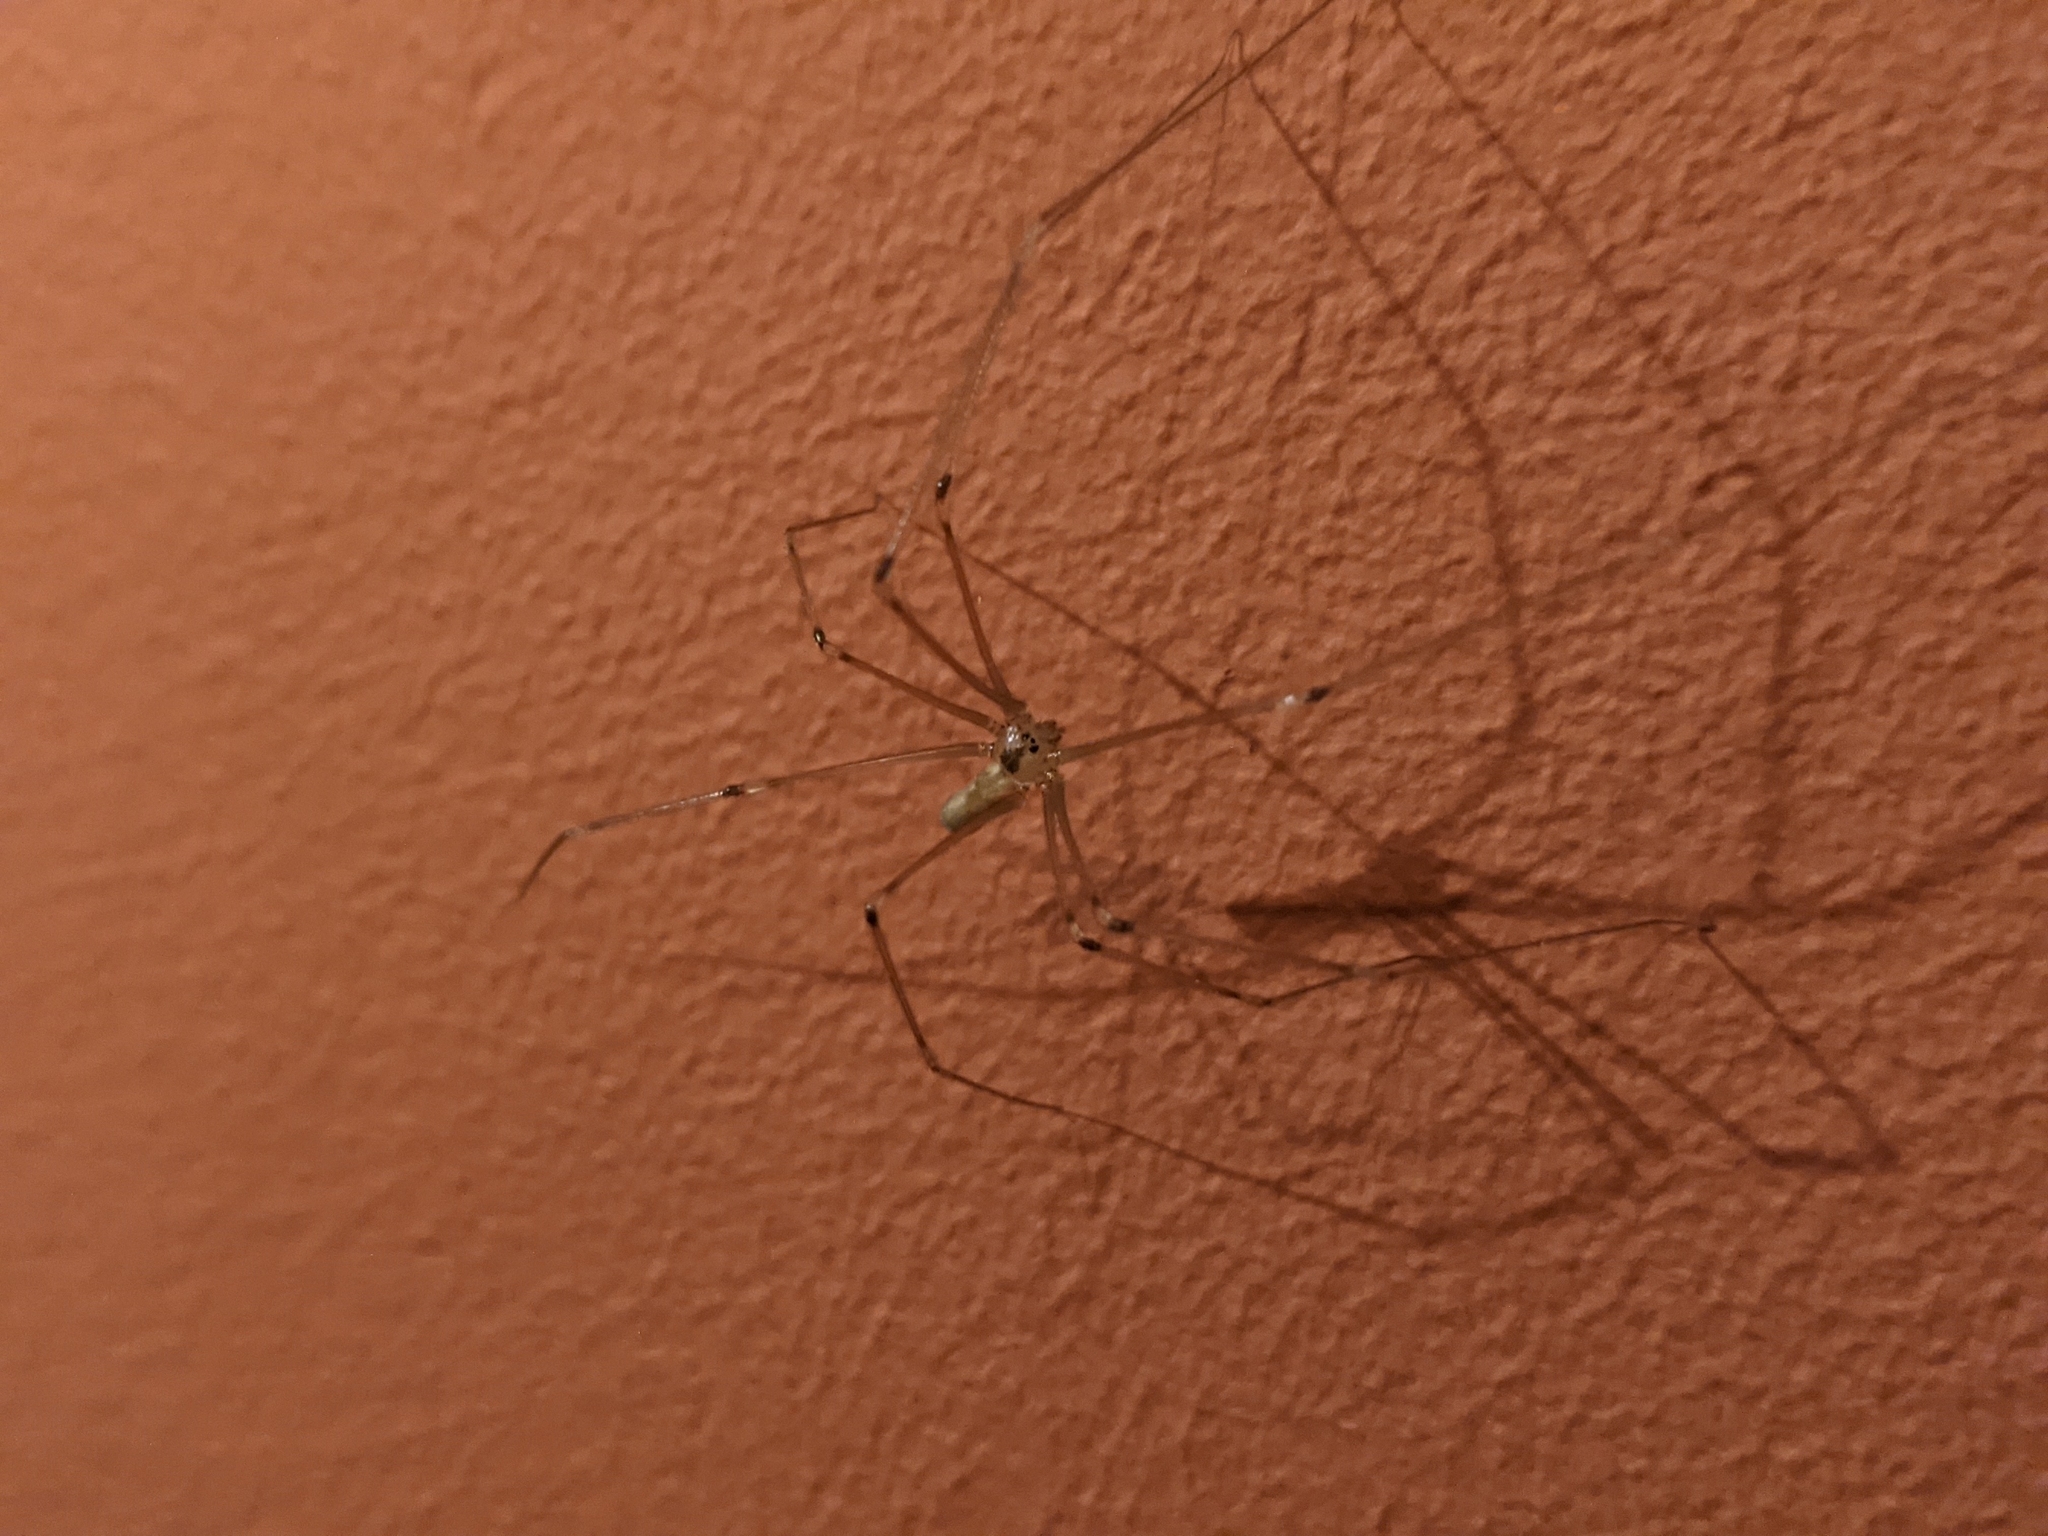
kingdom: Animalia
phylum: Arthropoda
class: Arachnida
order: Araneae
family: Pholcidae
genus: Pholcus
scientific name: Pholcus phalangioides
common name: Longbodied cellar spider
